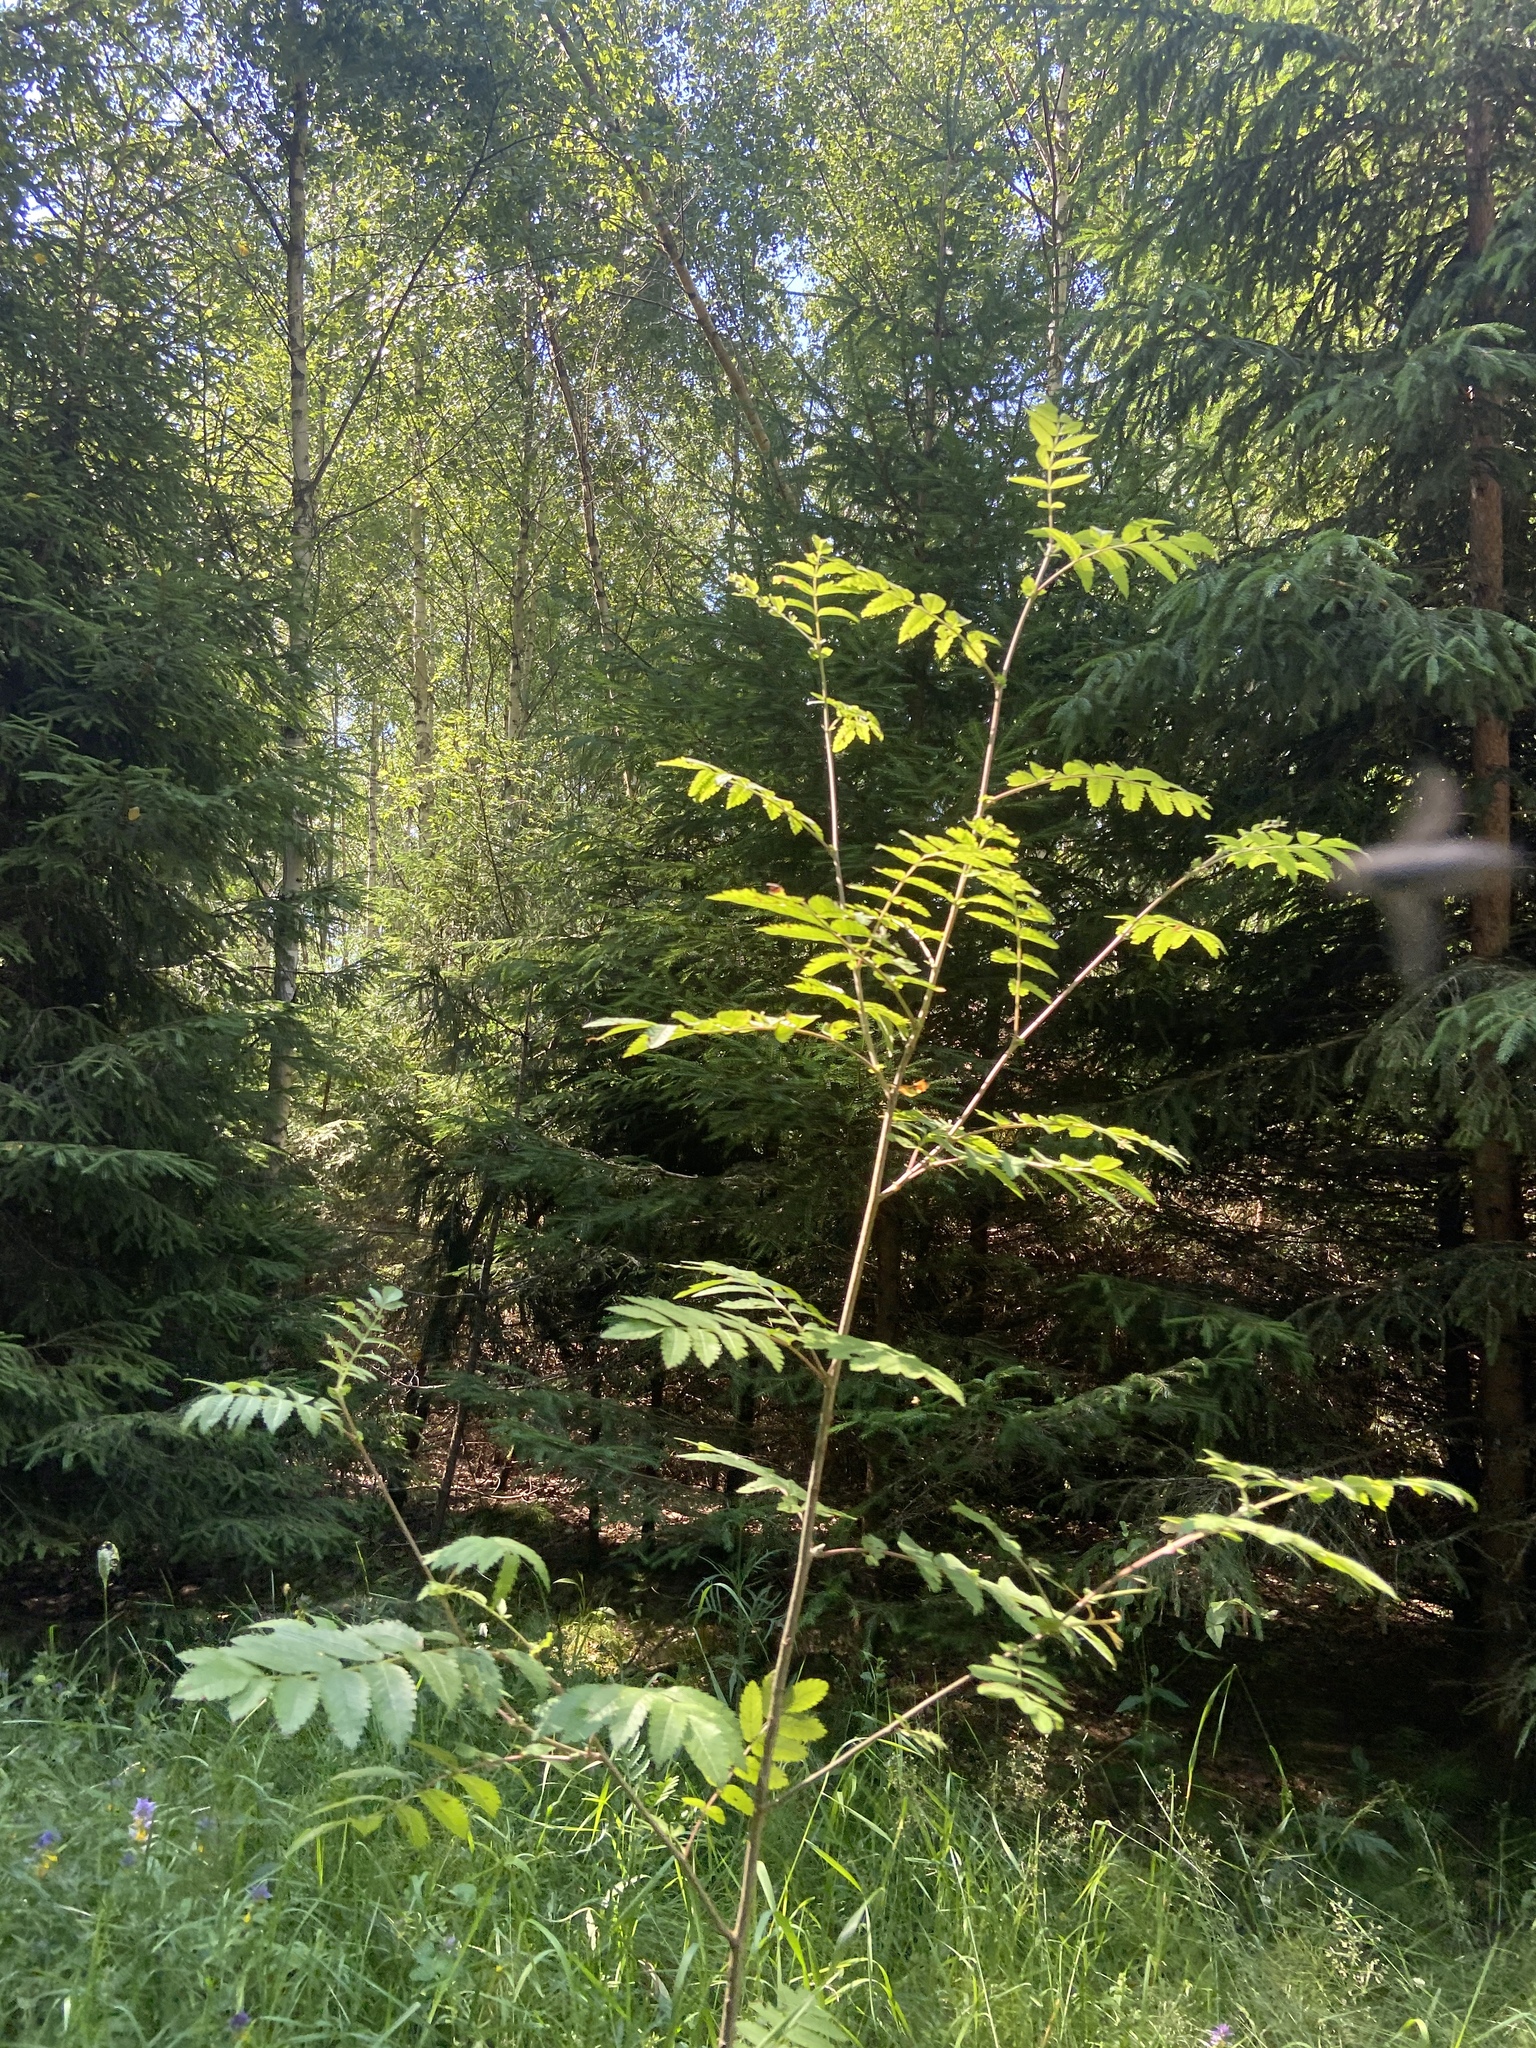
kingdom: Plantae
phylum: Tracheophyta
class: Magnoliopsida
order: Rosales
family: Rosaceae
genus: Sorbus
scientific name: Sorbus aucuparia
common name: Rowan
